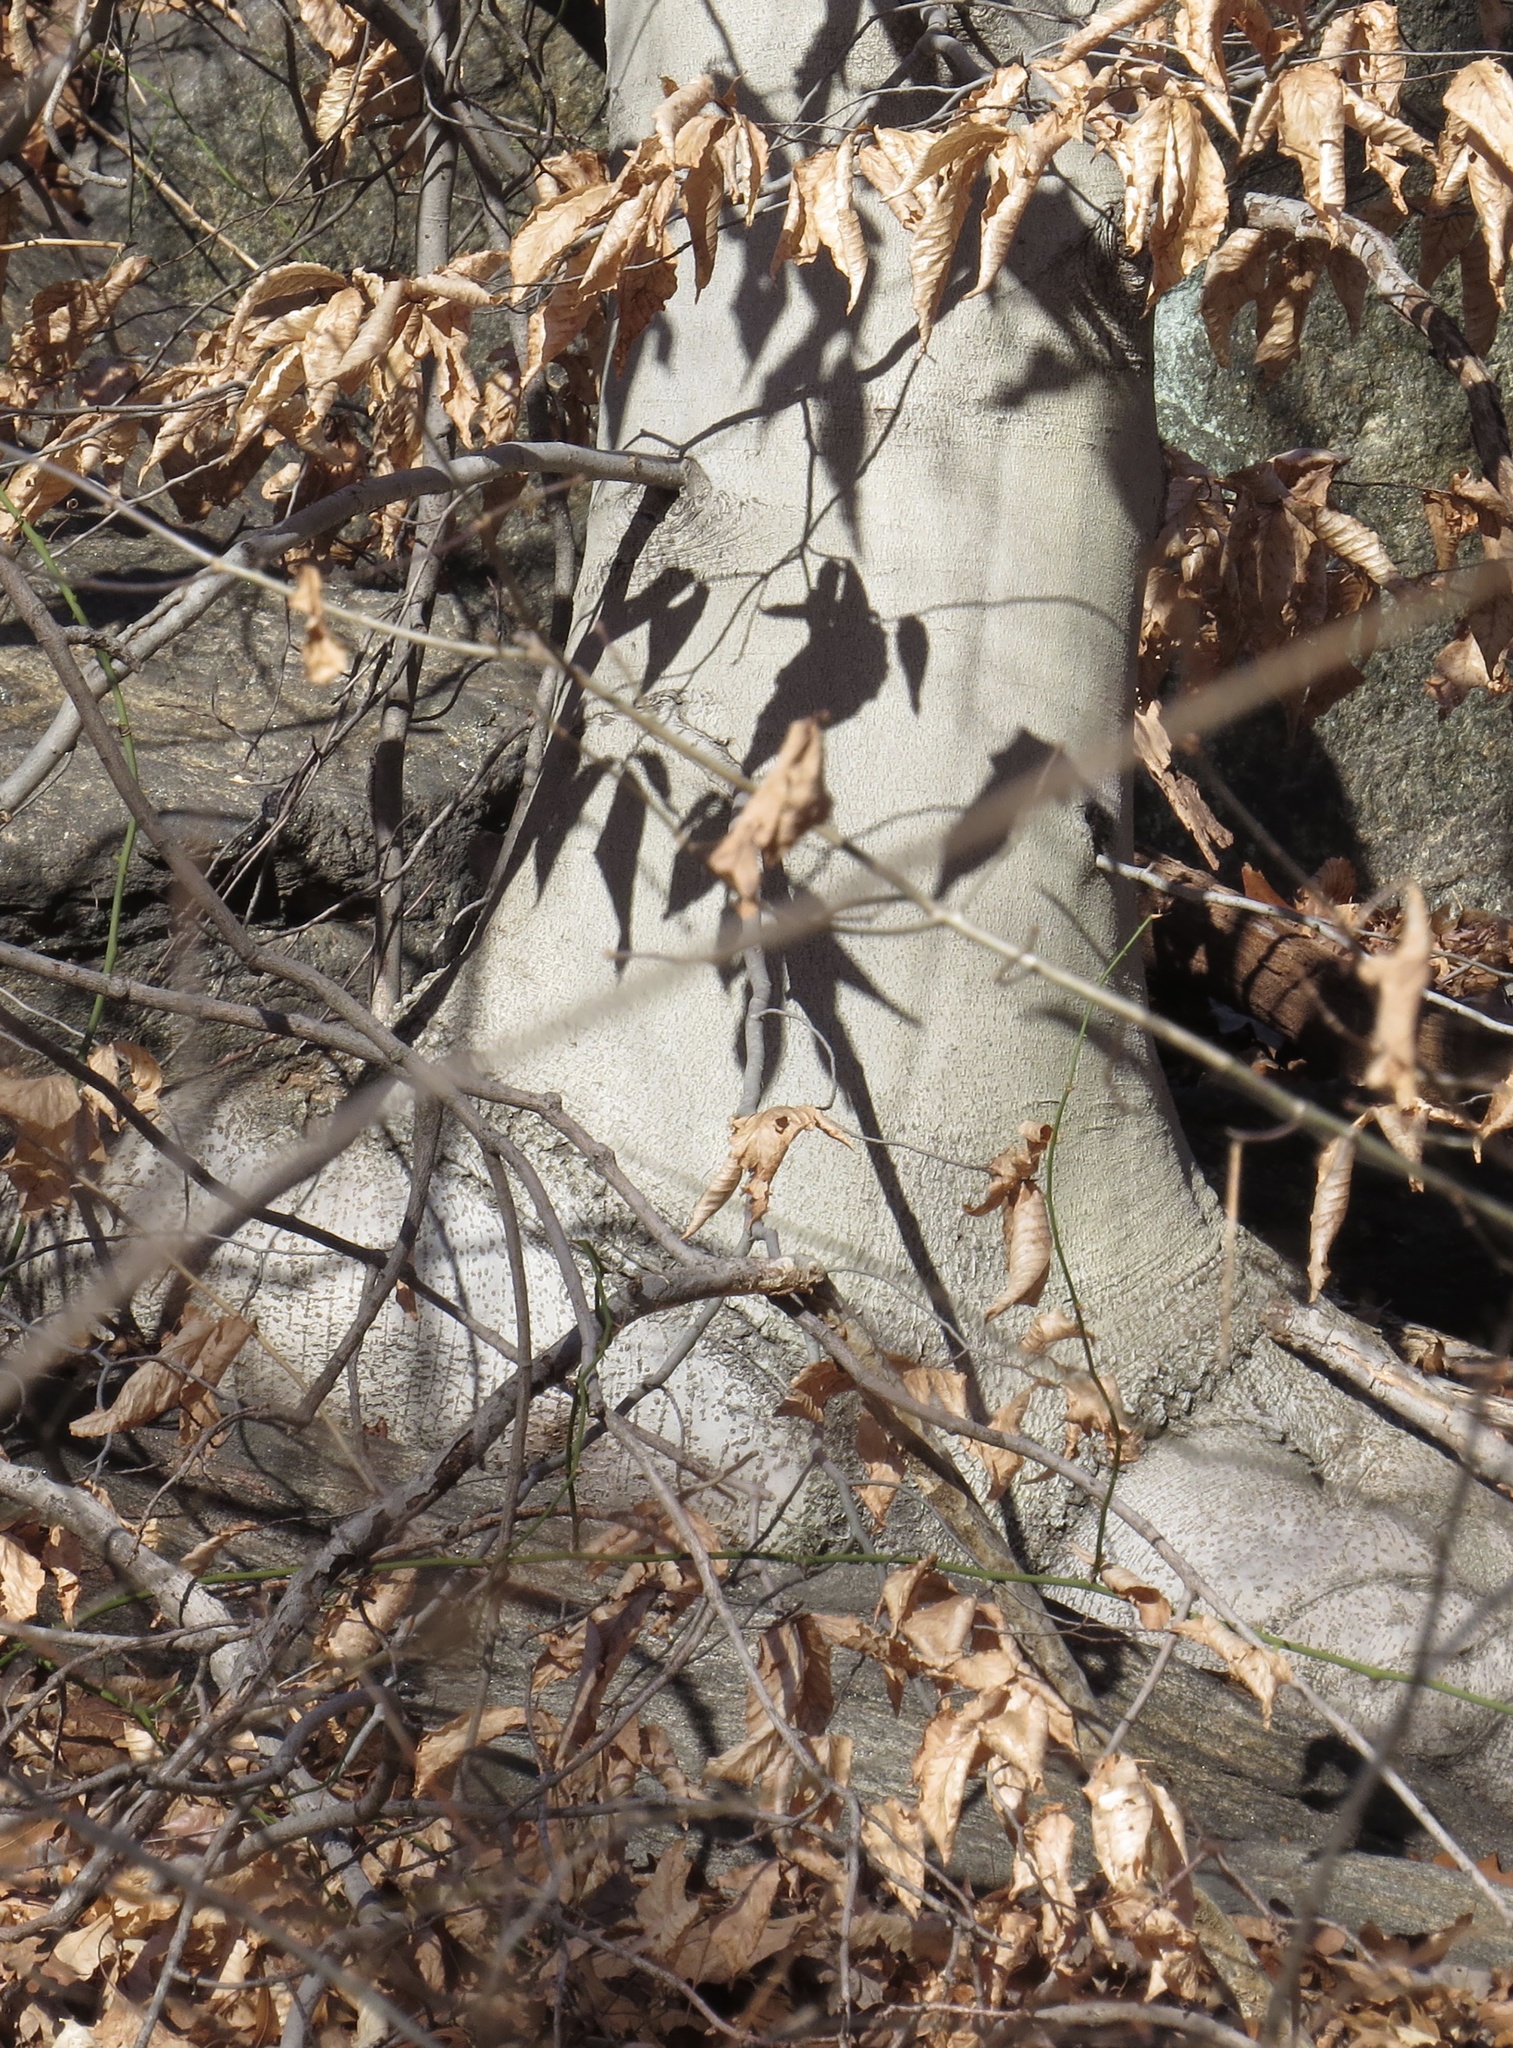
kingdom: Plantae
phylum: Tracheophyta
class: Magnoliopsida
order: Fagales
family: Fagaceae
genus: Fagus
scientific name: Fagus grandifolia
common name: American beech
